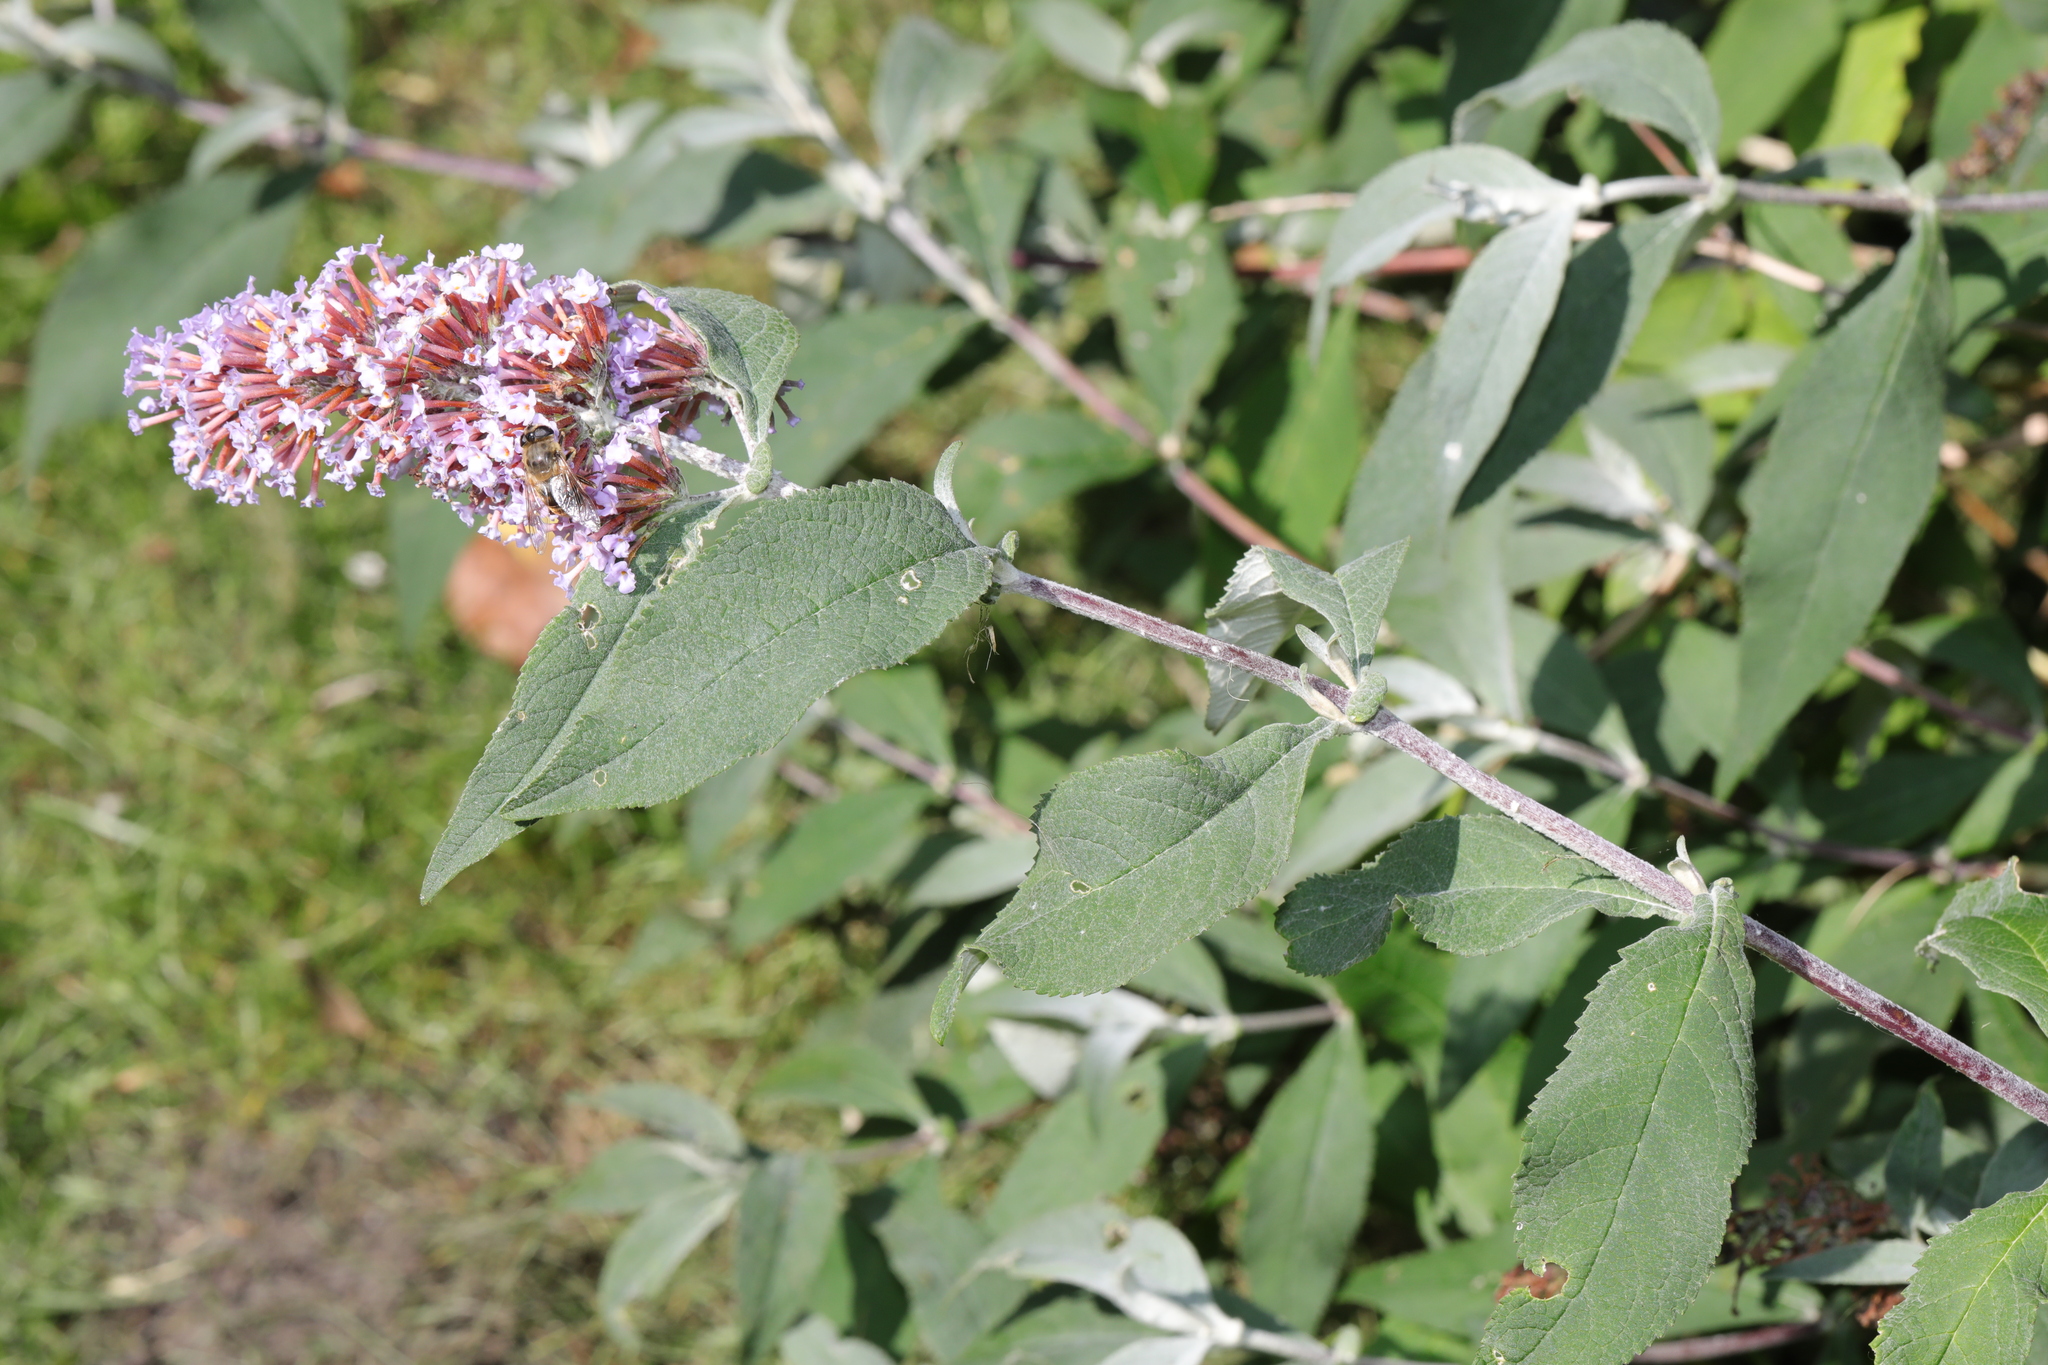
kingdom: Plantae
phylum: Tracheophyta
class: Magnoliopsida
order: Lamiales
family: Scrophulariaceae
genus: Buddleja
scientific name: Buddleja davidii
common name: Butterfly-bush
